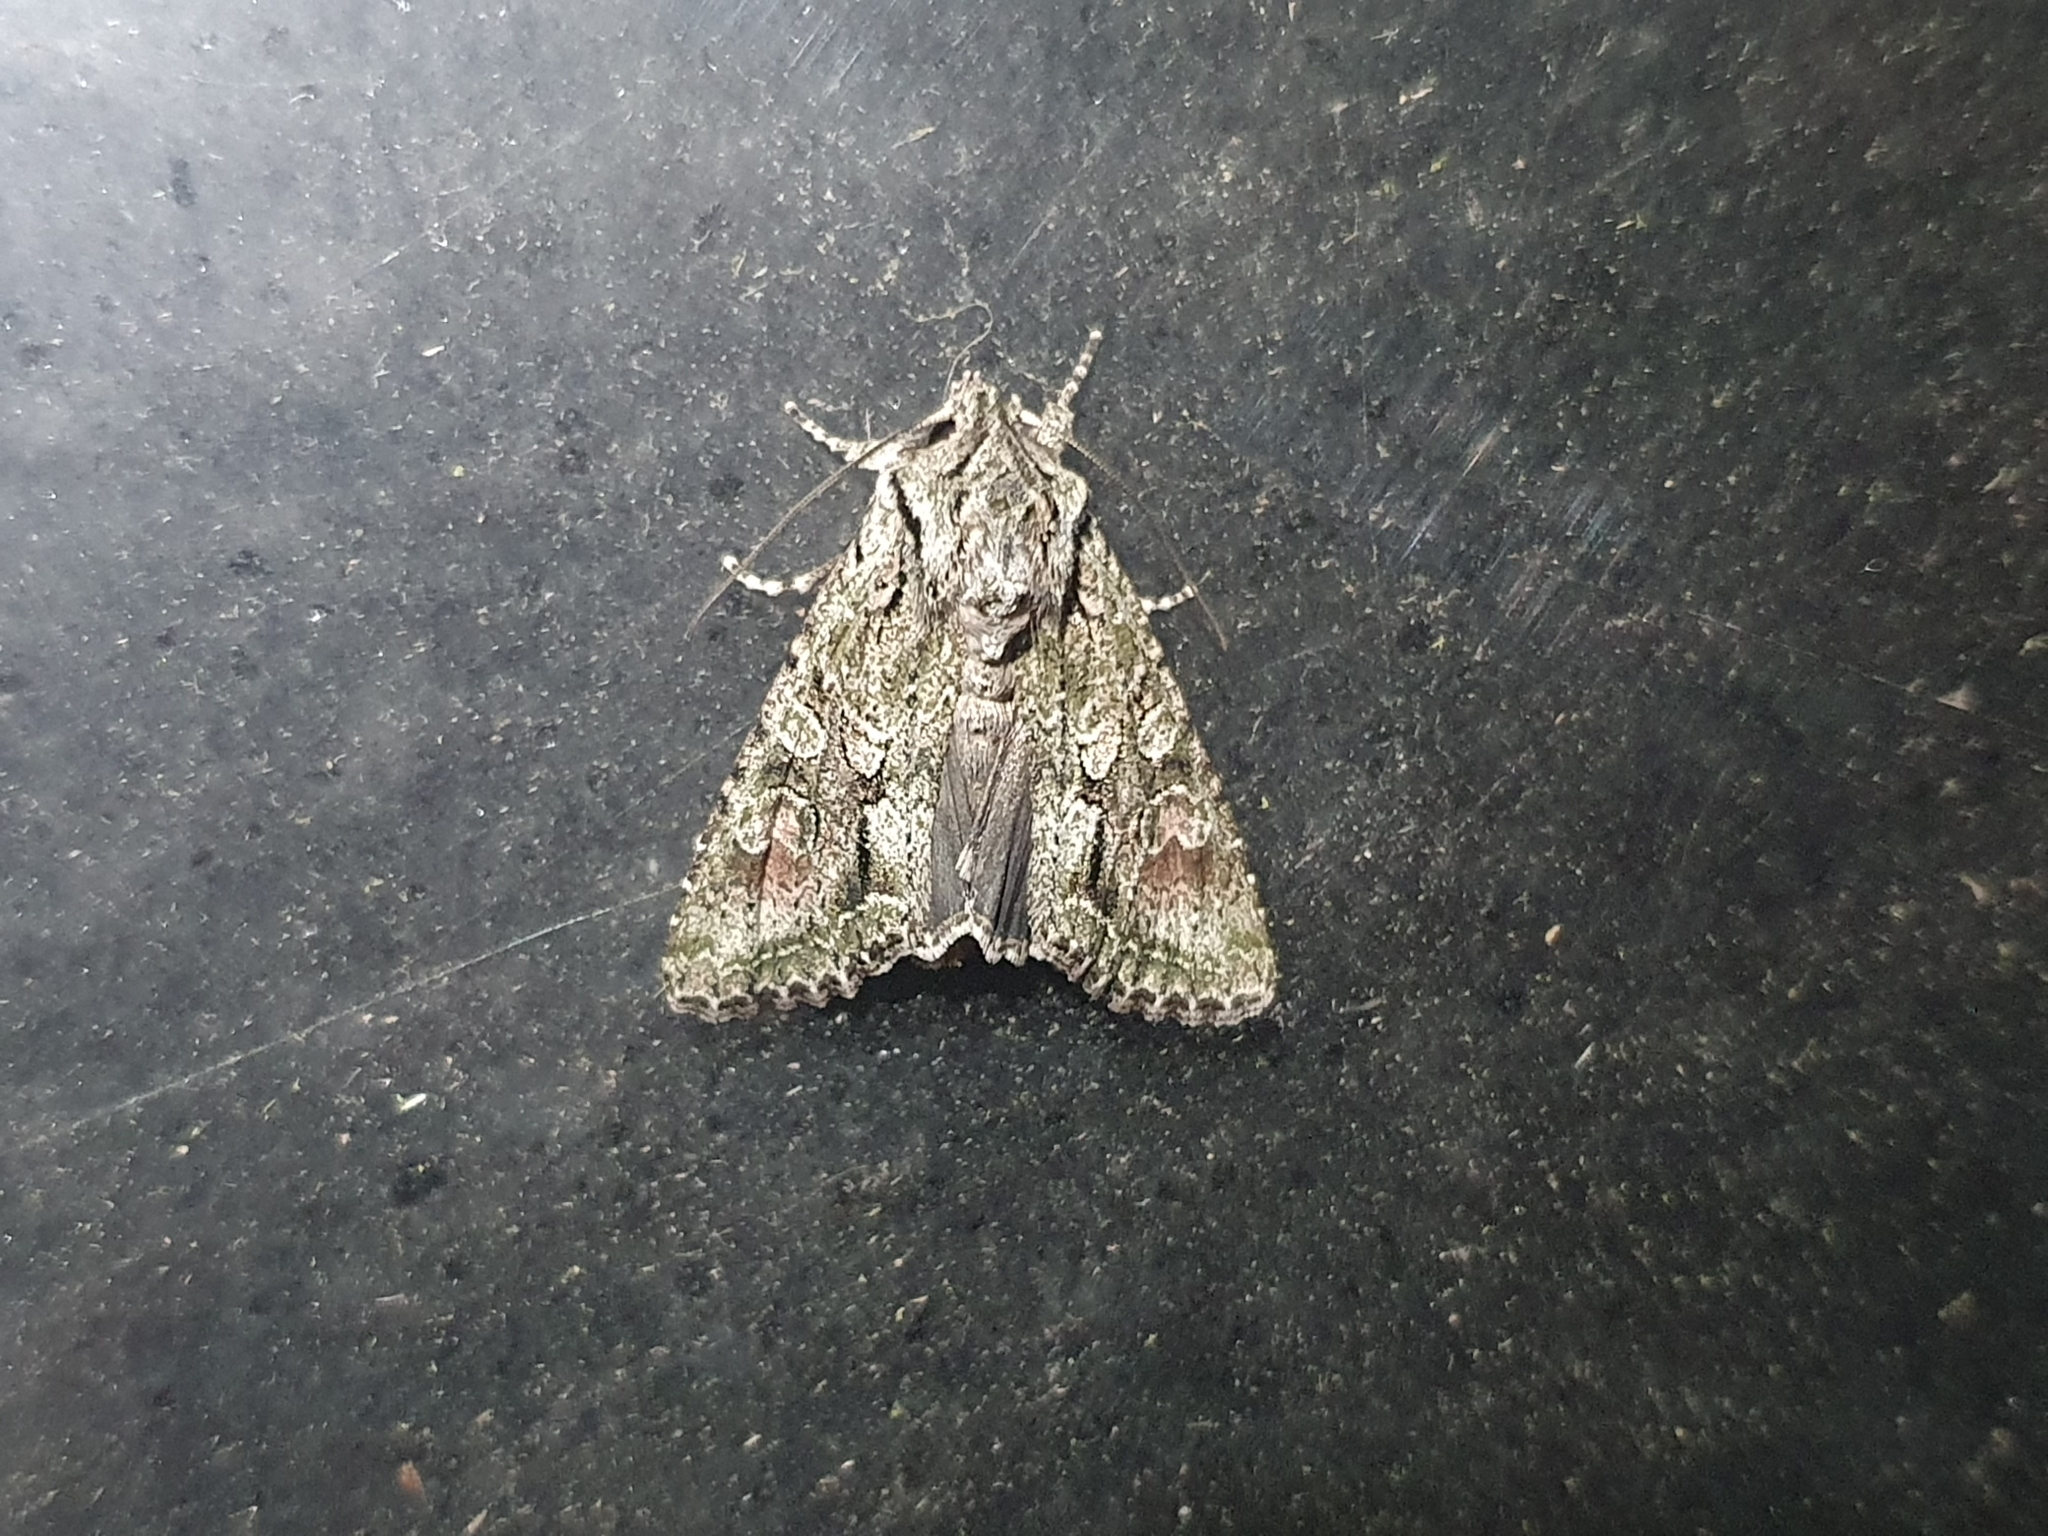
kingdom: Animalia
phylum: Arthropoda
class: Insecta
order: Lepidoptera
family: Noctuidae
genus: Ichneutica
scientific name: Ichneutica mutans
